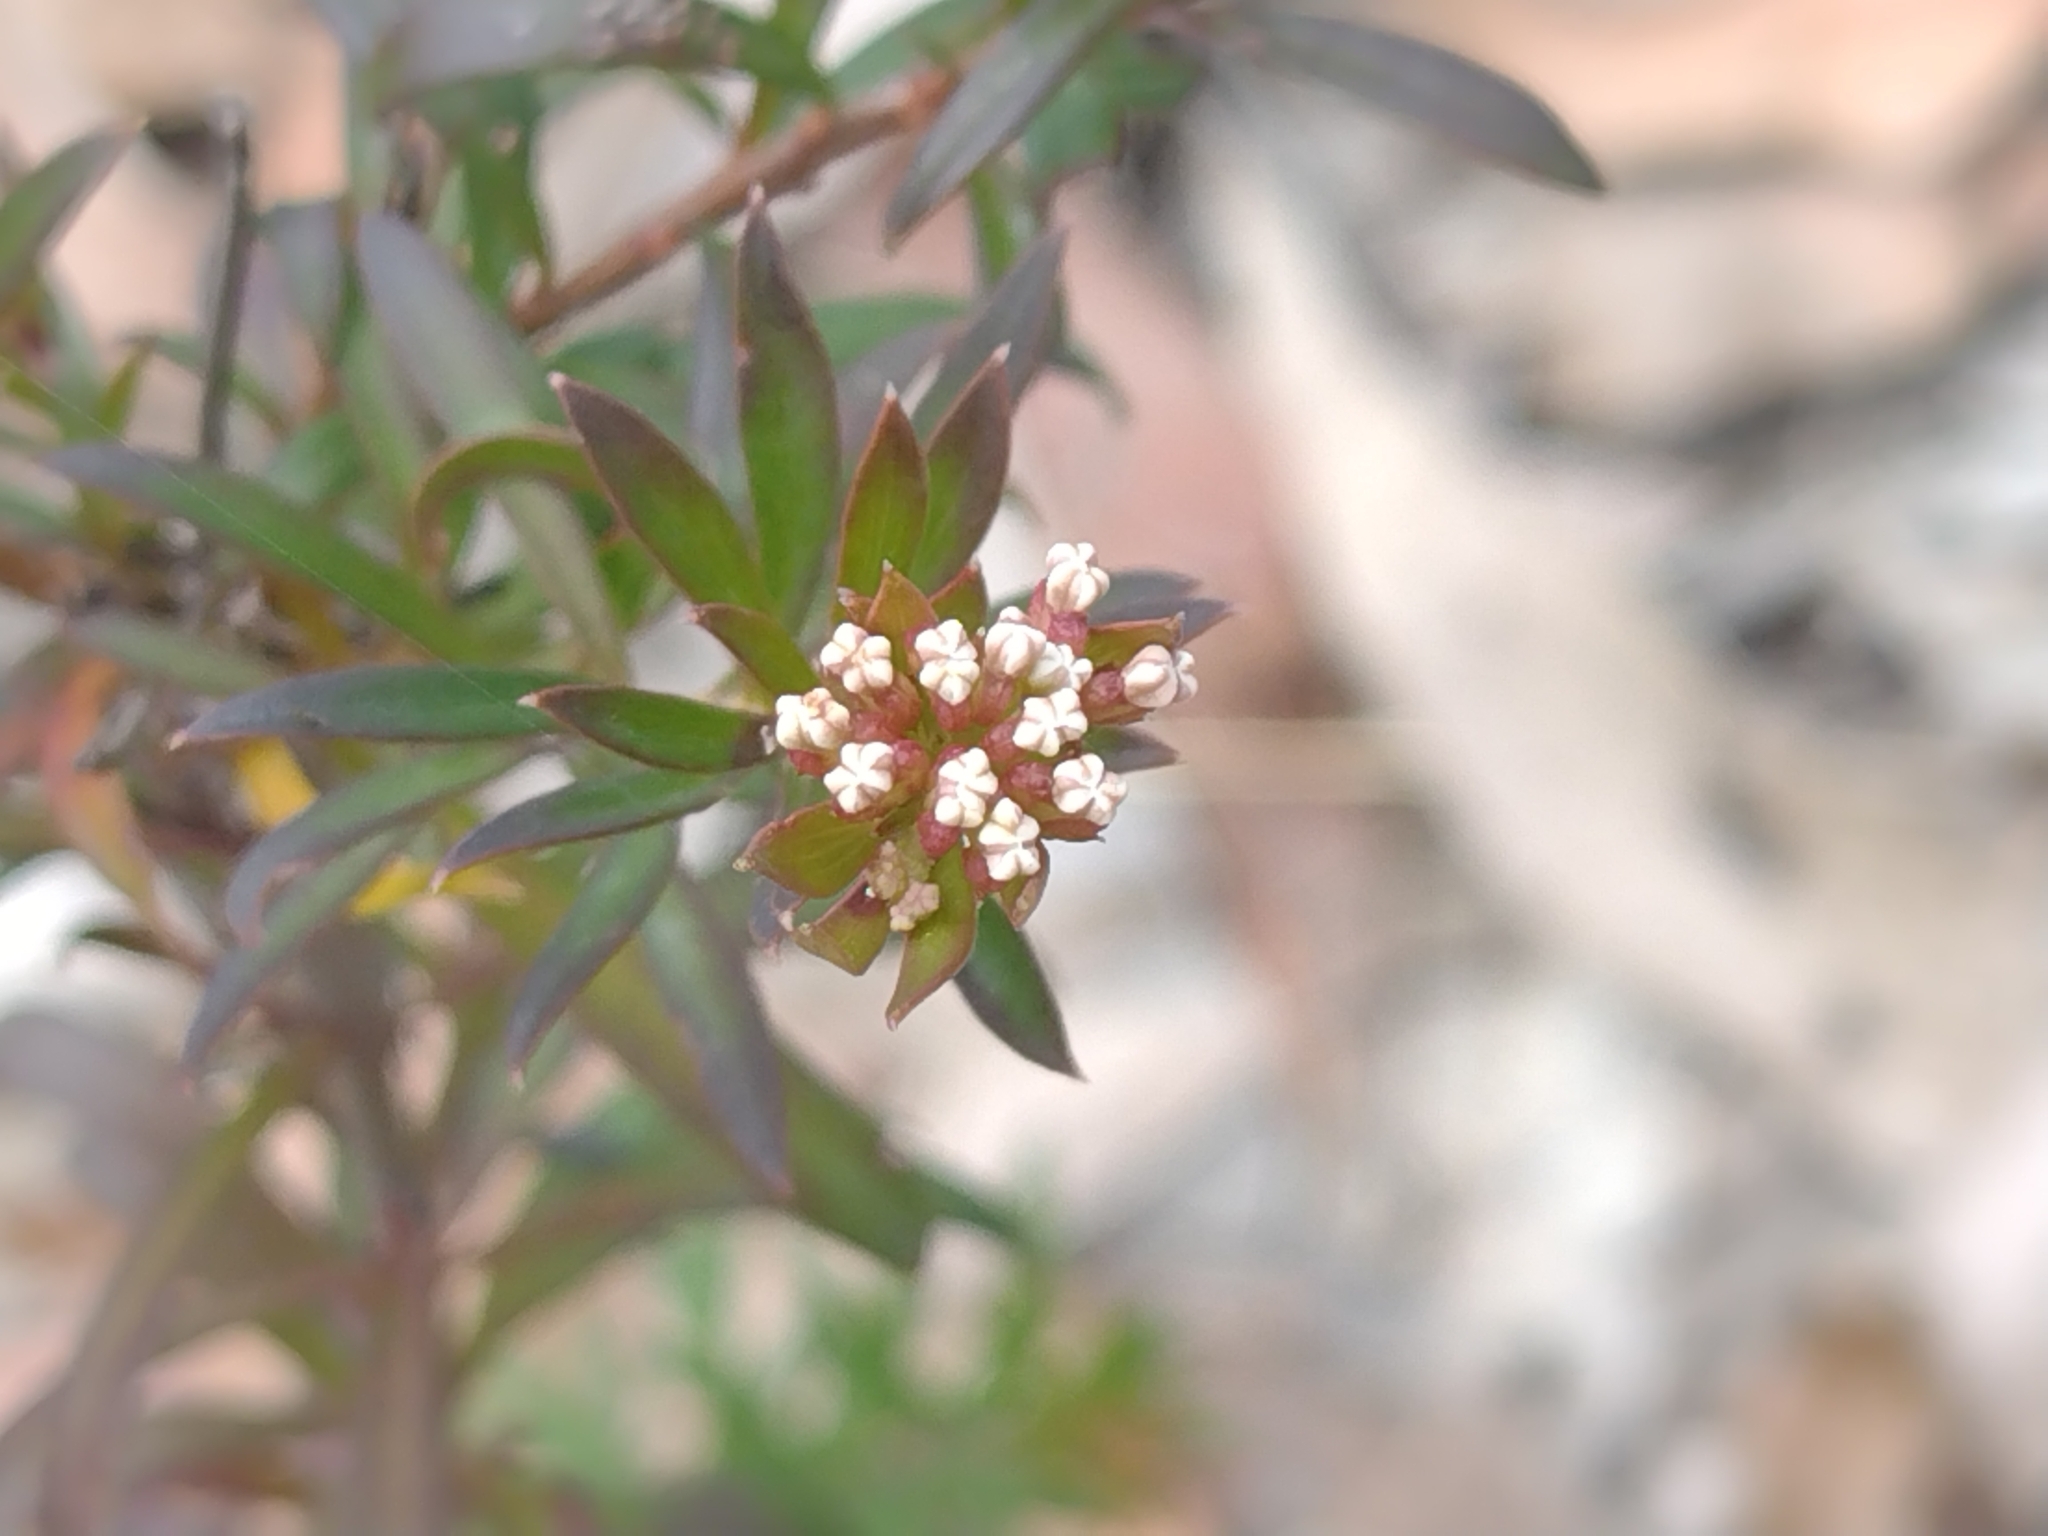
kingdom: Plantae
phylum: Tracheophyta
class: Magnoliopsida
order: Apiales
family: Apiaceae
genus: Platysace
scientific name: Platysace lanceolata
